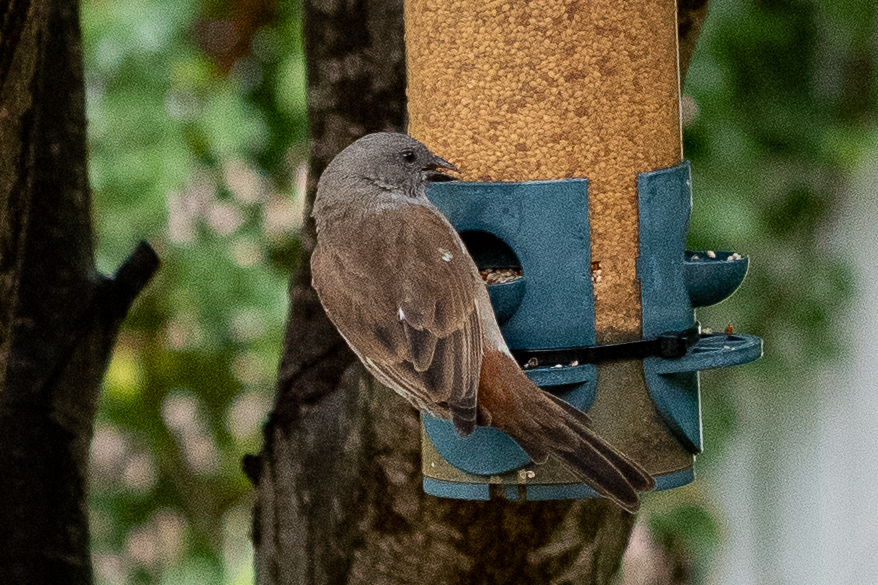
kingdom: Animalia
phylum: Chordata
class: Aves
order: Passeriformes
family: Passeridae
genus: Passer
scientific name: Passer diffusus
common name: Southern grey-headed sparrow
